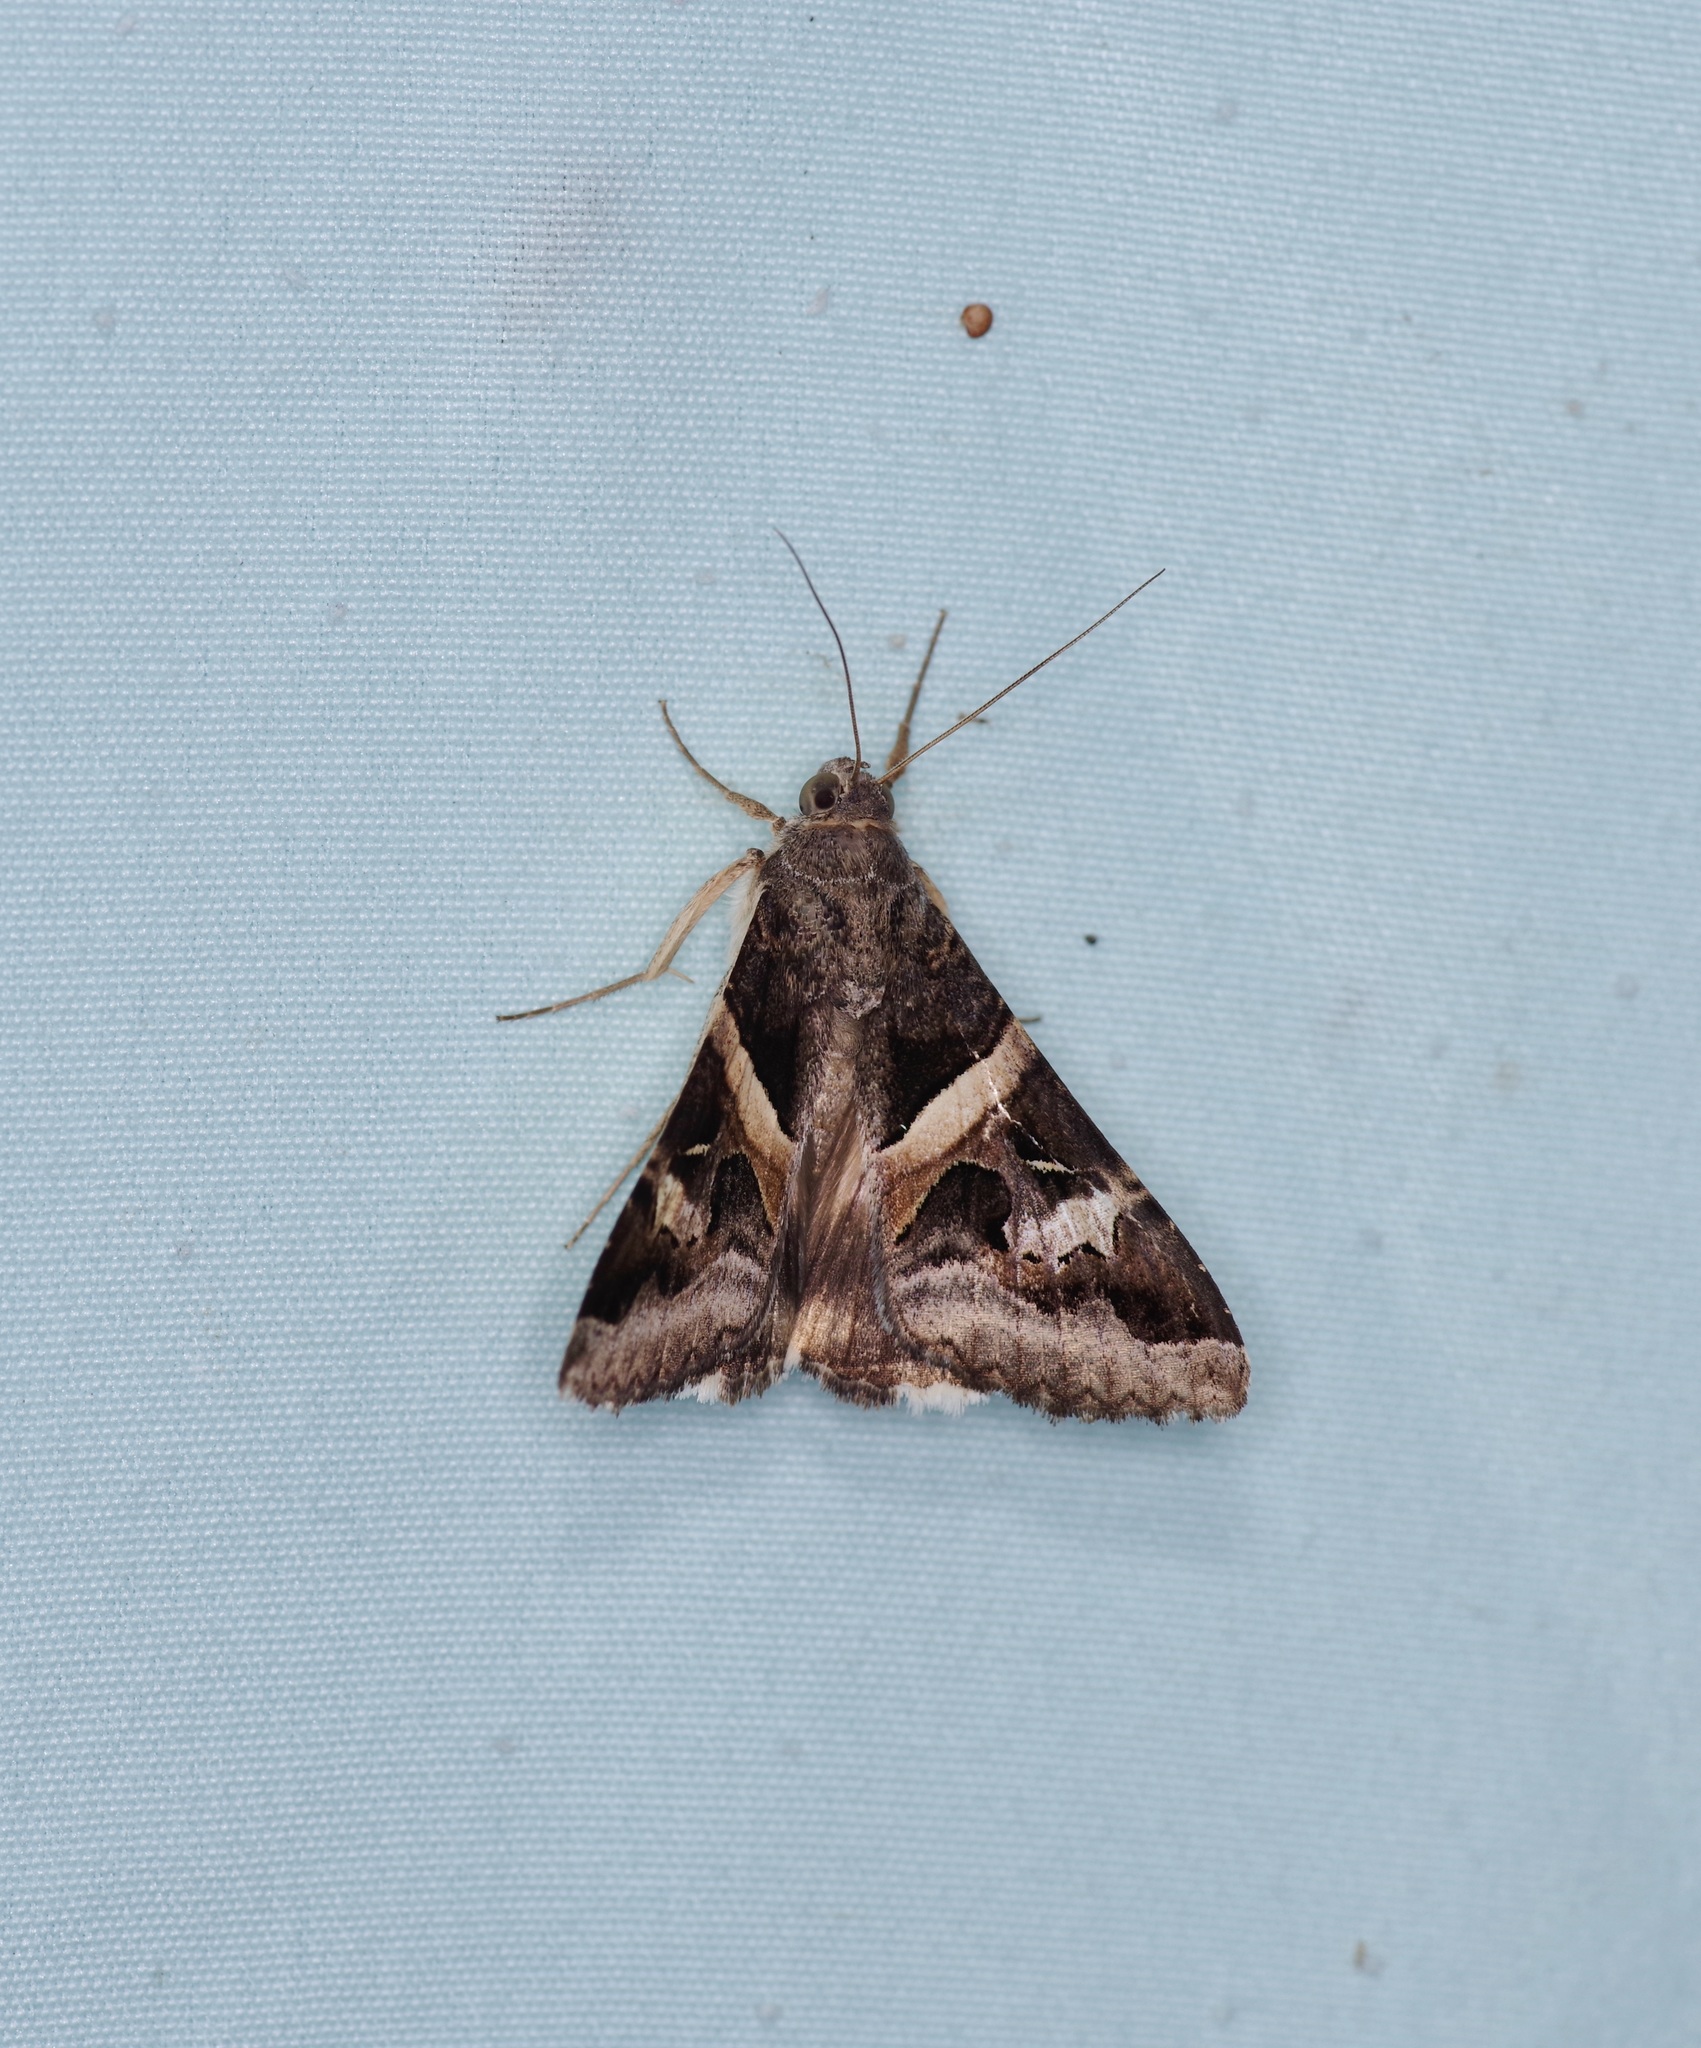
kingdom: Animalia
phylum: Arthropoda
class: Insecta
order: Lepidoptera
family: Erebidae
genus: Melipotis
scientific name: Melipotis indomita
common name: Moth
